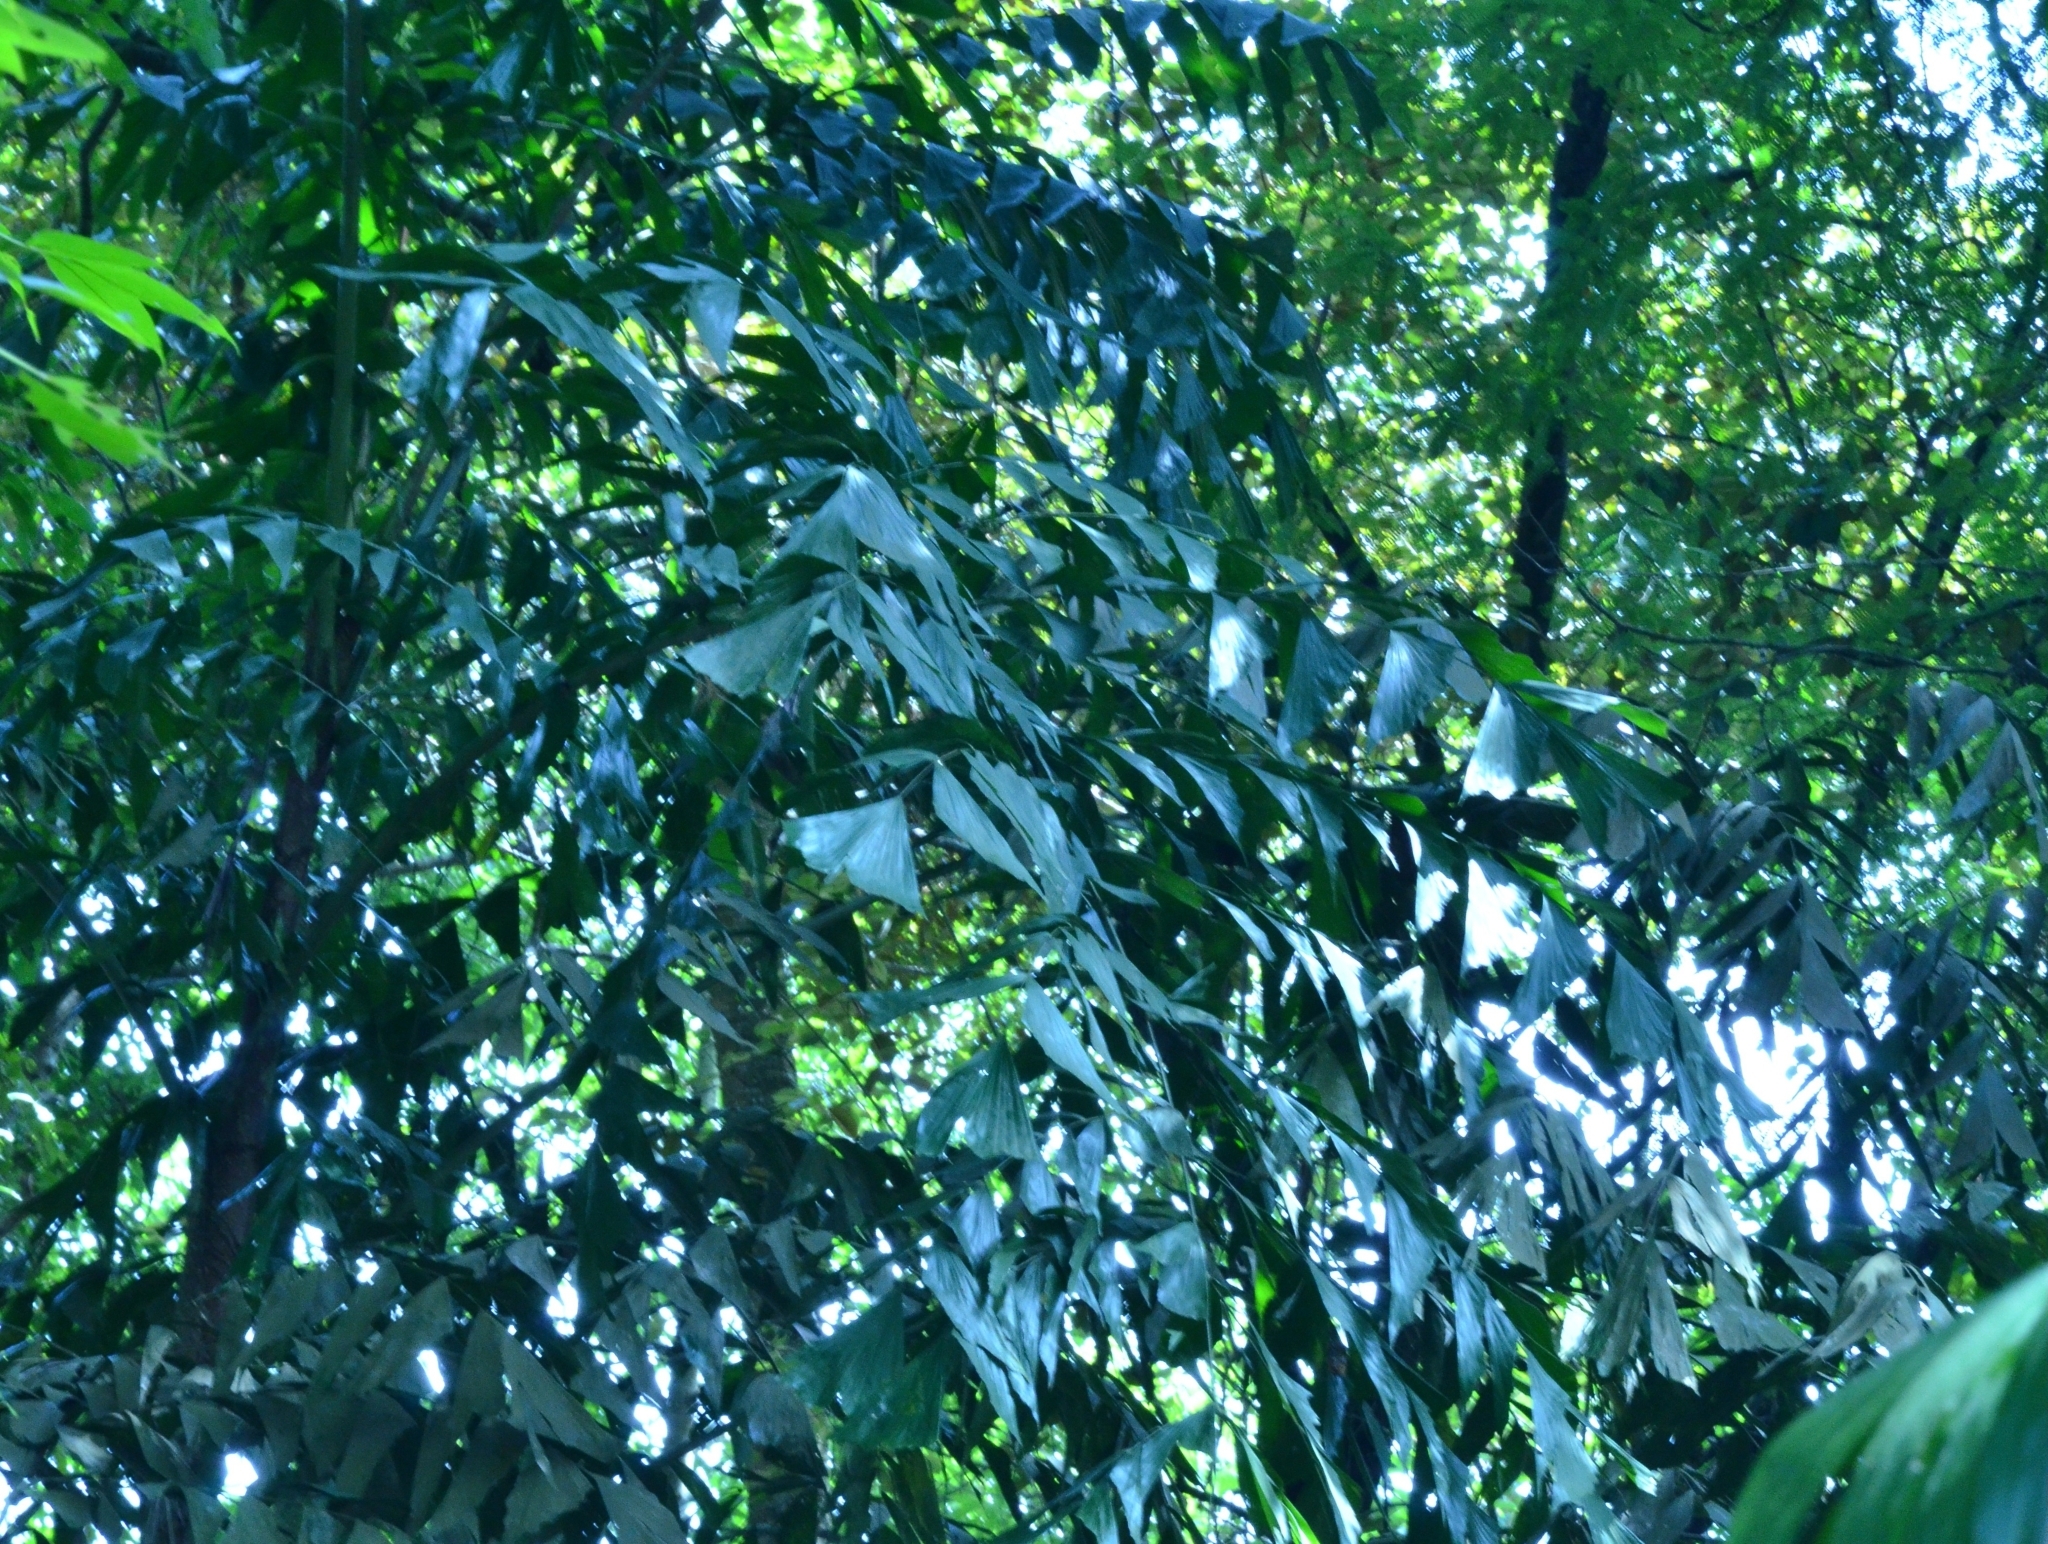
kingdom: Plantae
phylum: Tracheophyta
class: Liliopsida
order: Arecales
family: Arecaceae
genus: Caryota
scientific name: Caryota urens
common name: Jaggery palm
